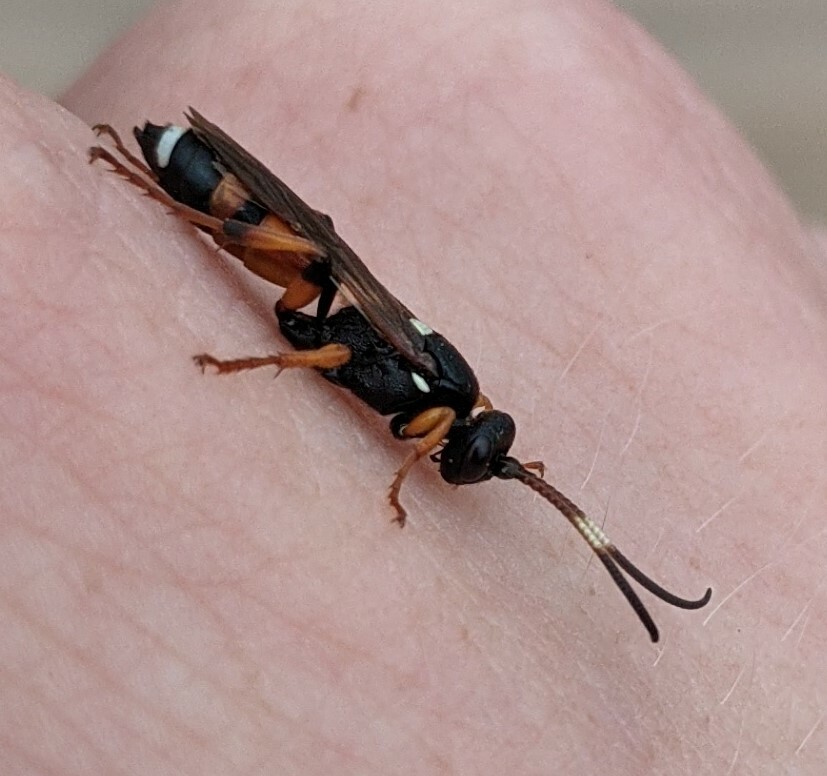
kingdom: Animalia
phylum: Arthropoda
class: Insecta
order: Hymenoptera
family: Ichneumonidae
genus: Ichneumon
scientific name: Ichneumon sarcitorius
